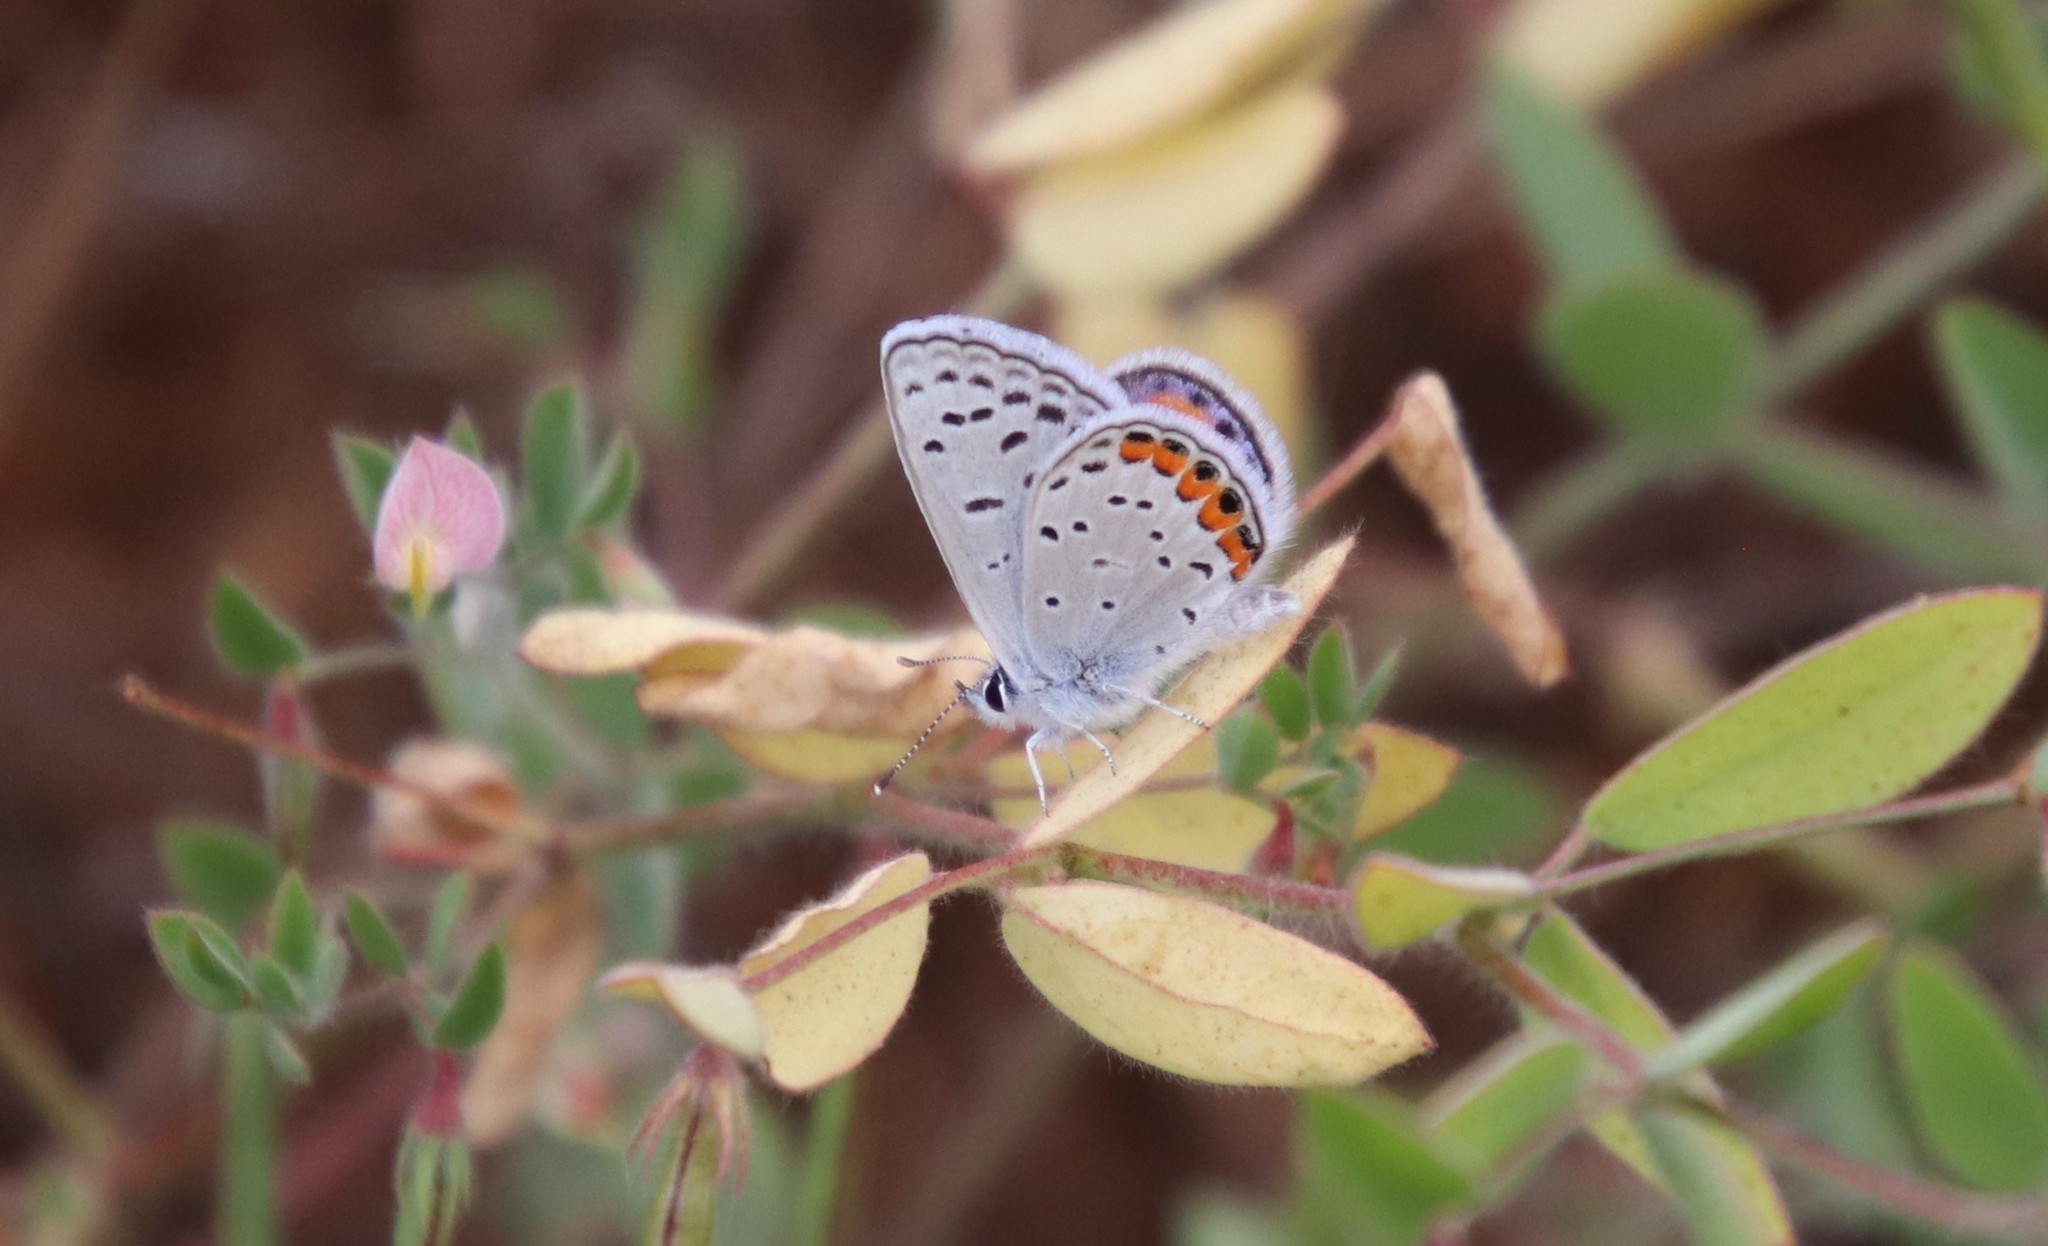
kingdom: Animalia
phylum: Arthropoda
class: Insecta
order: Lepidoptera
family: Lycaenidae
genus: Icaricia
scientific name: Icaricia acmon
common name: Acmon blue
